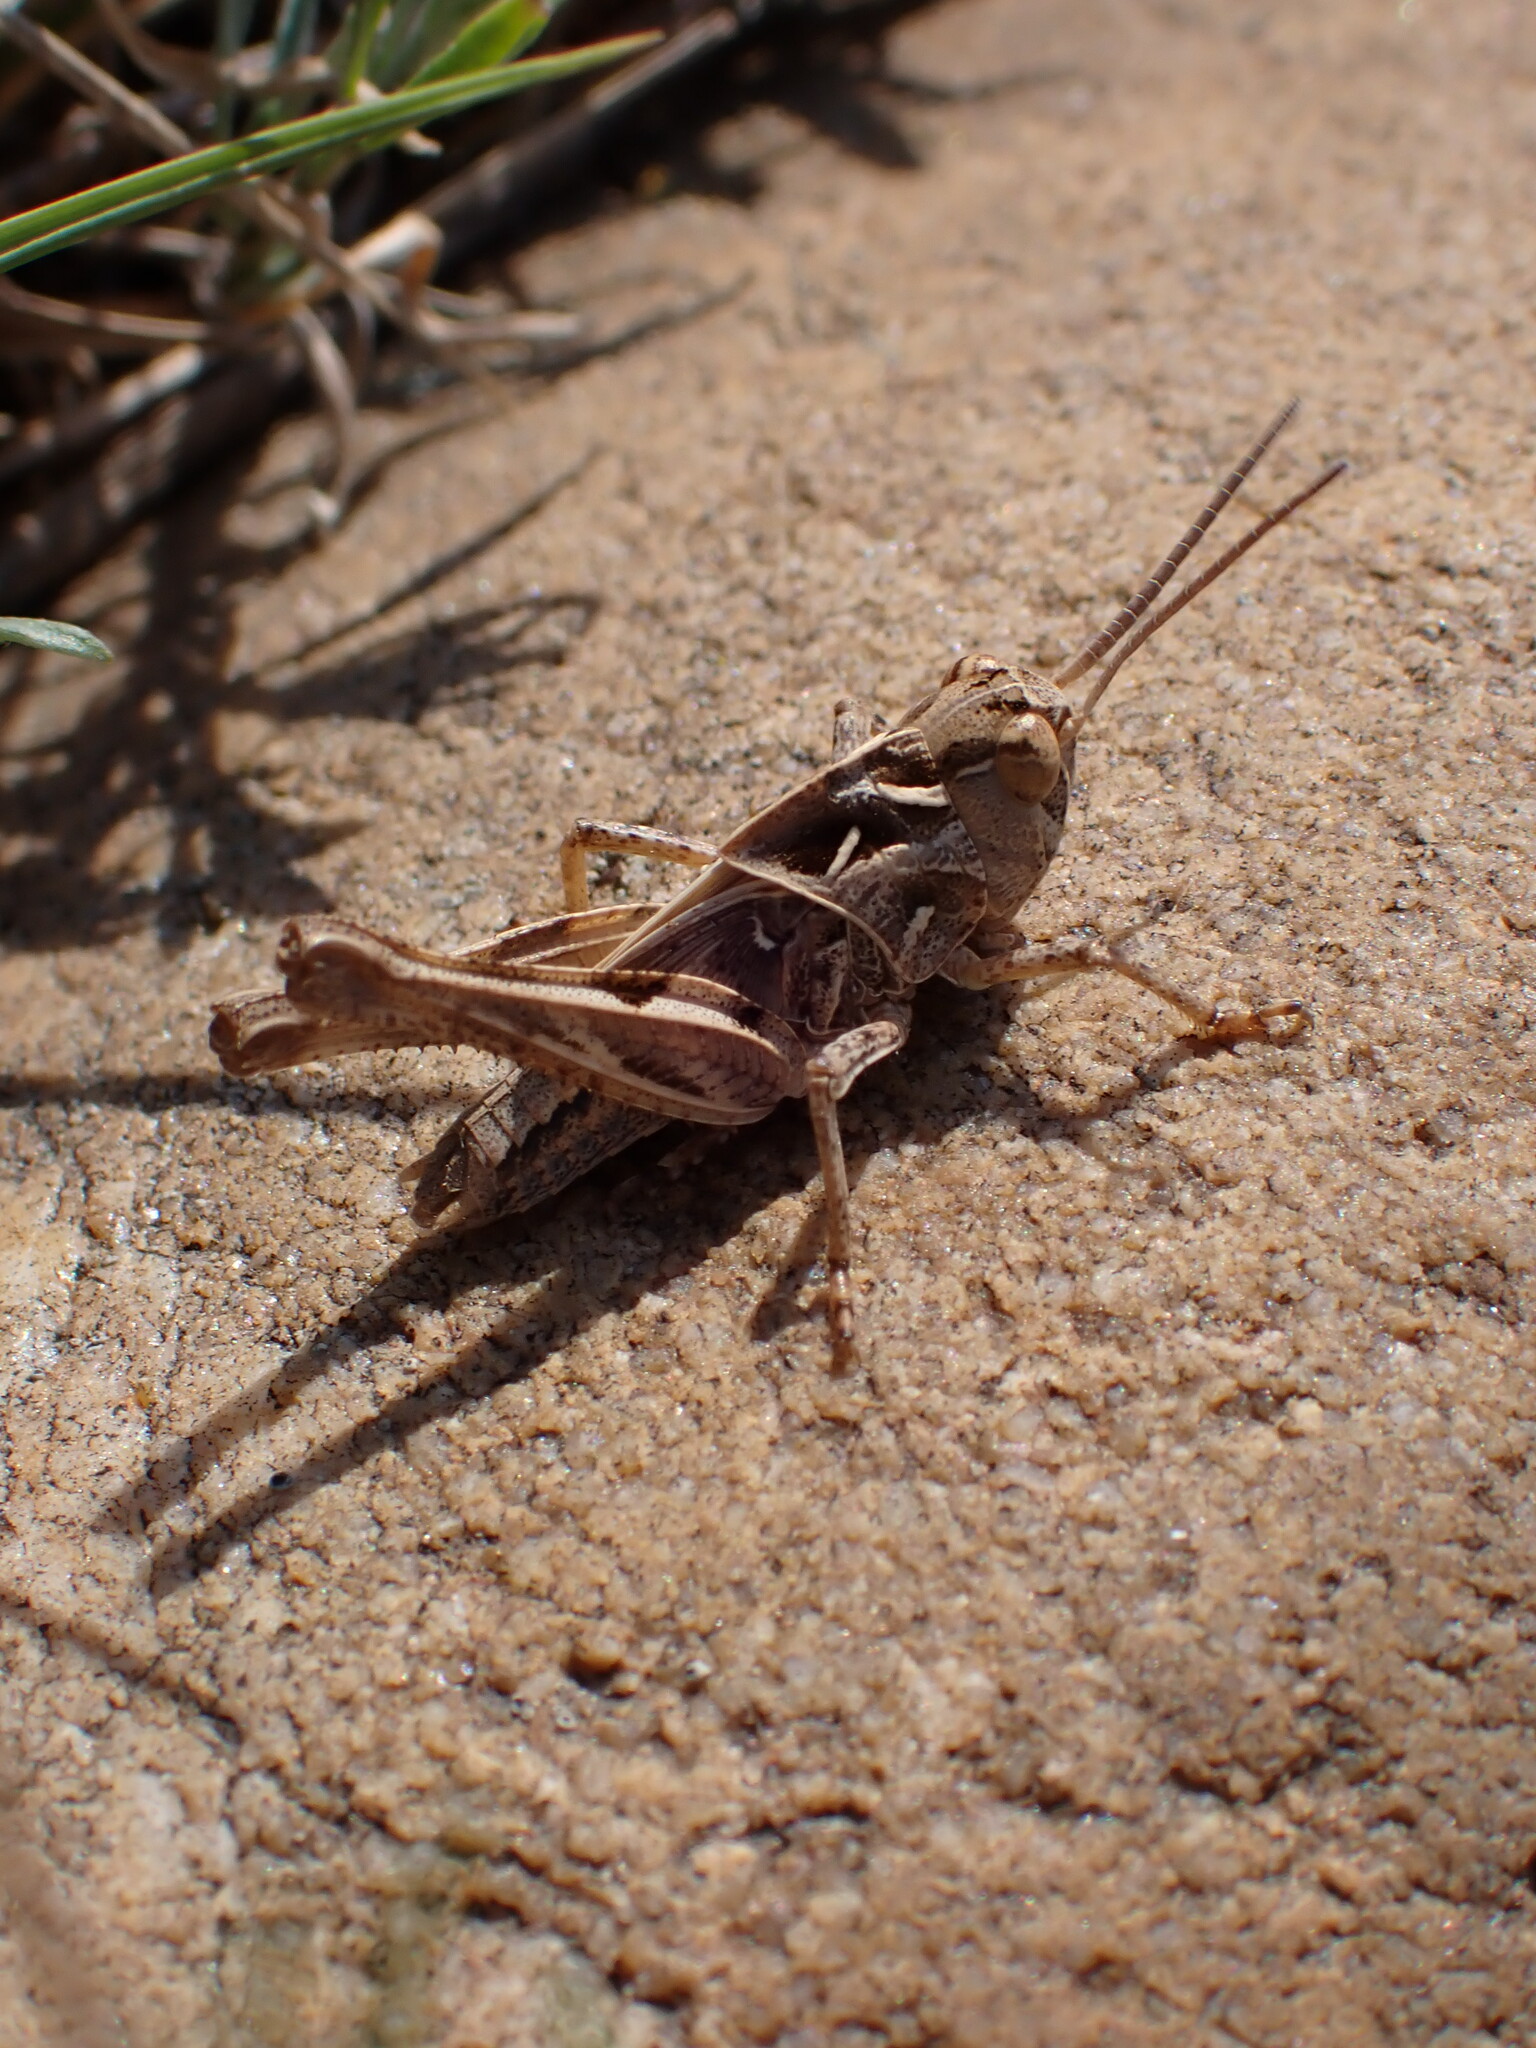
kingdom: Animalia
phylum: Arthropoda
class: Insecta
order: Orthoptera
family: Acrididae
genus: Oedaleus
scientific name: Oedaleus decorus
